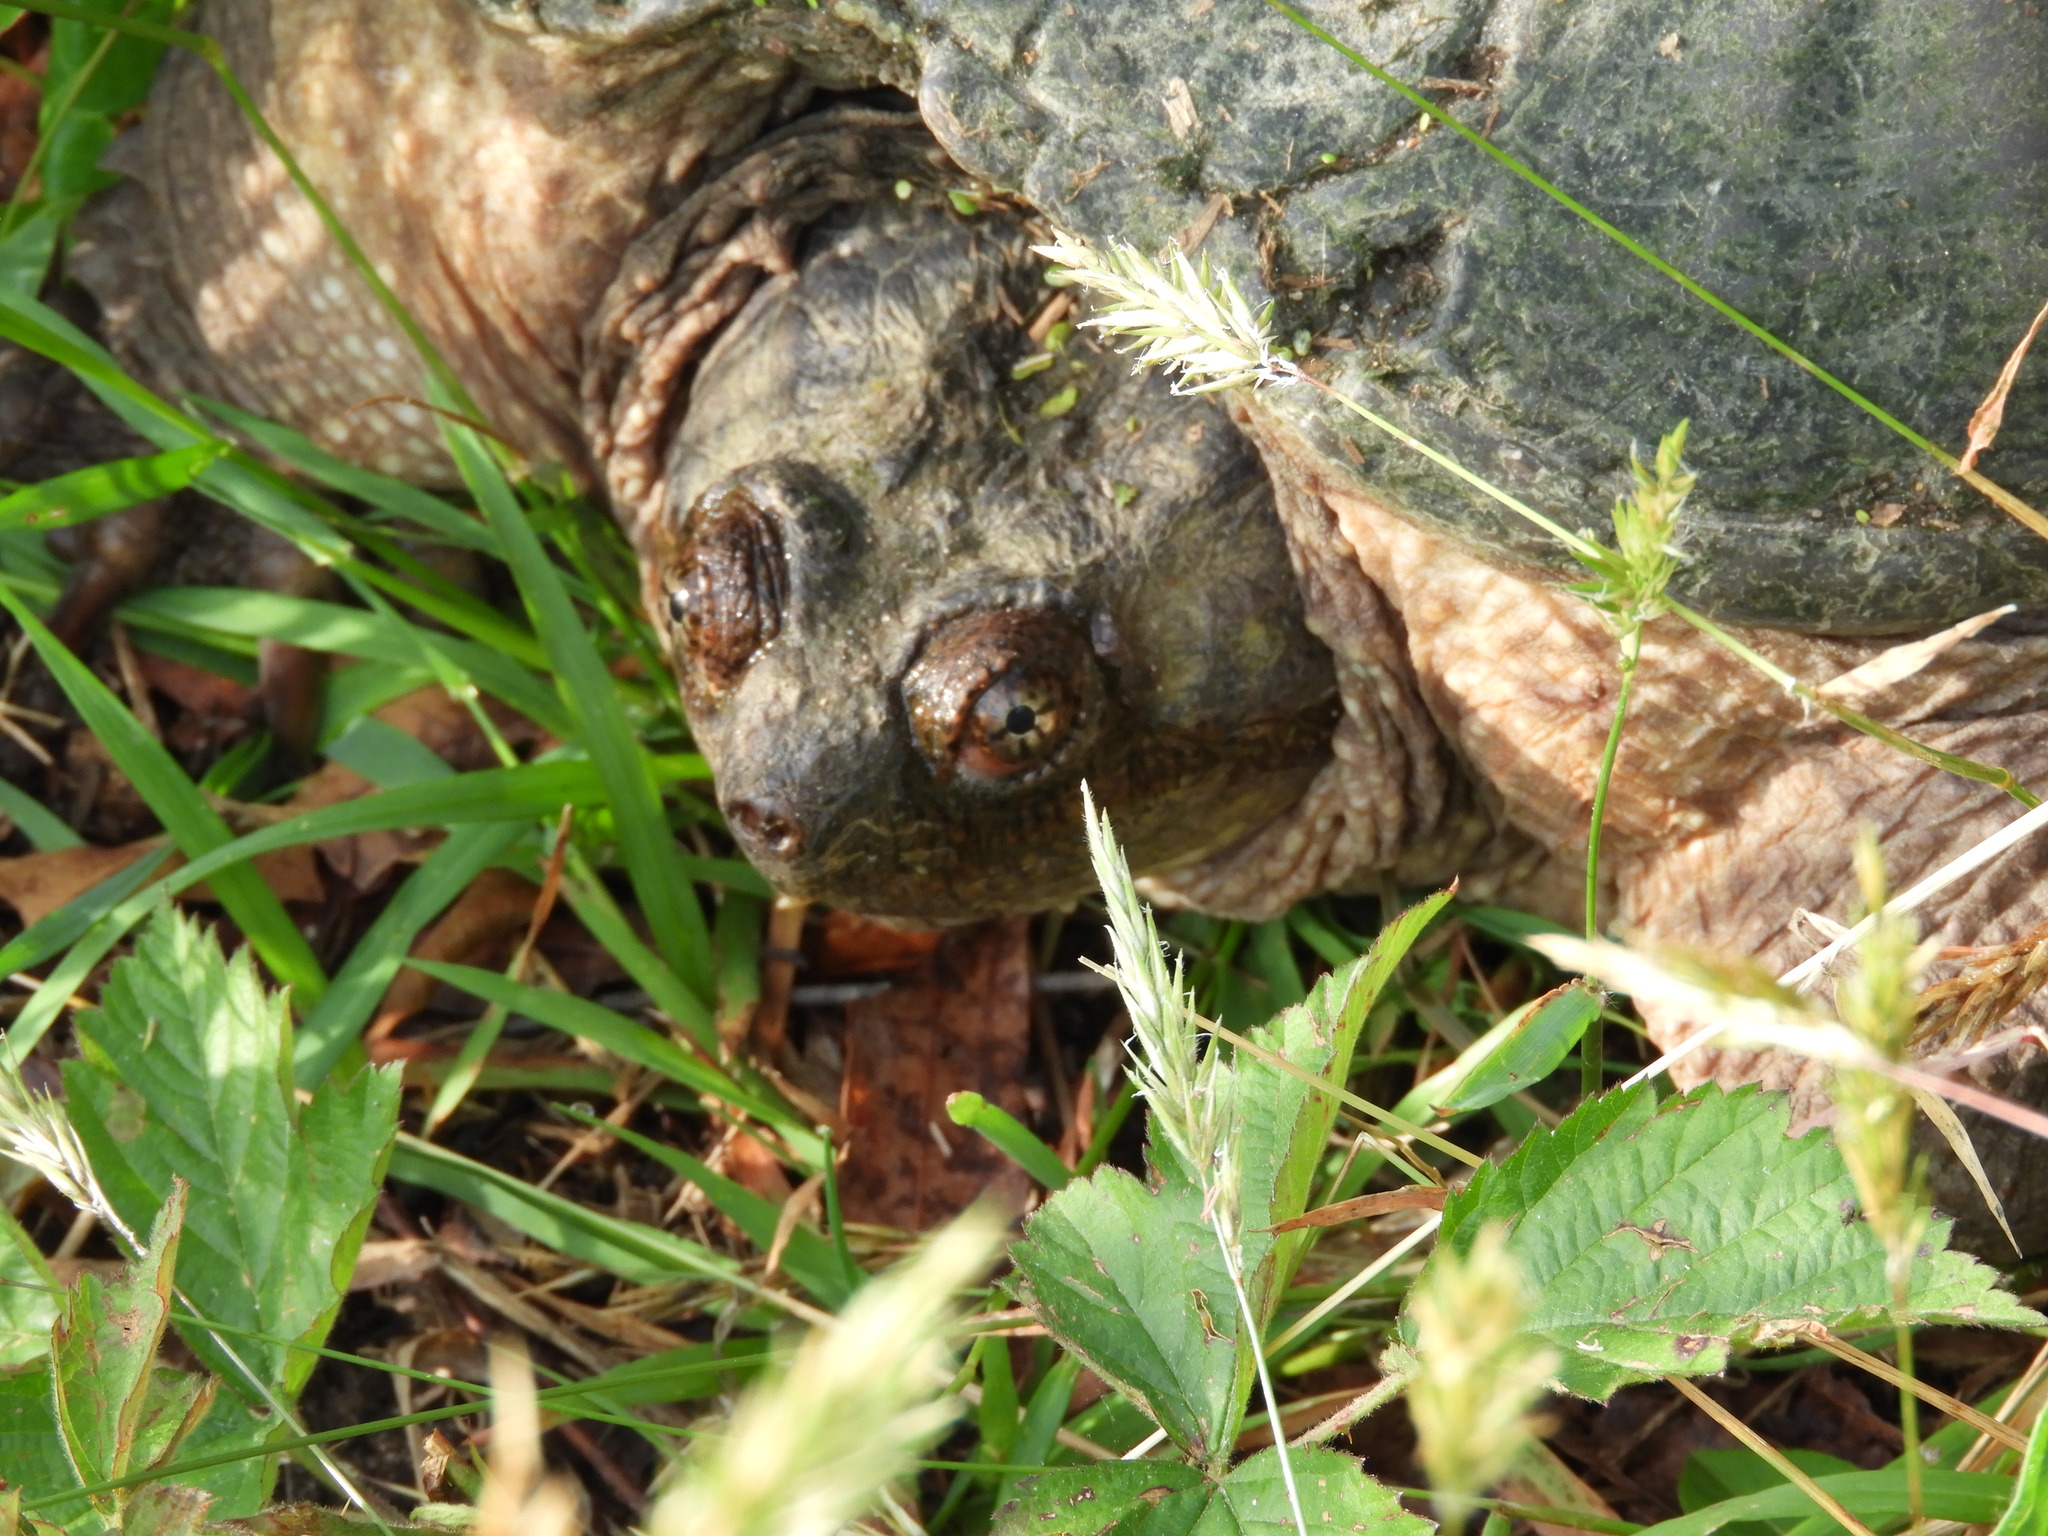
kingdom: Animalia
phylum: Chordata
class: Testudines
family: Chelydridae
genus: Chelydra
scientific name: Chelydra serpentina
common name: Common snapping turtle
